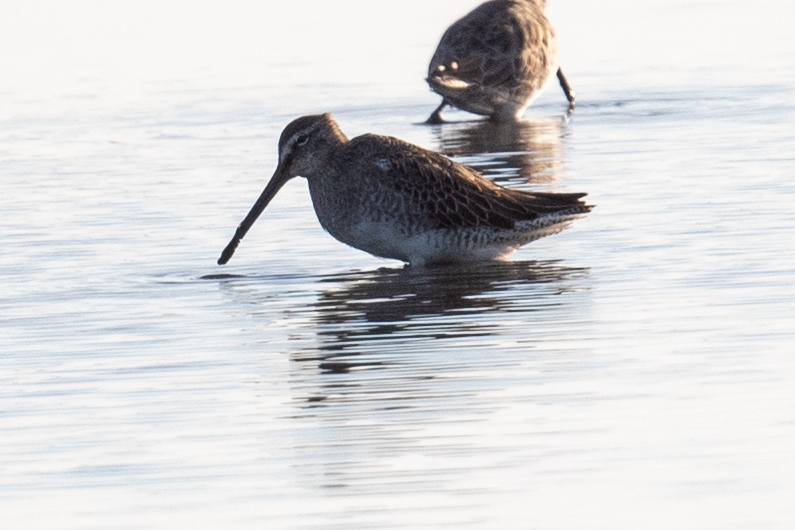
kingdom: Animalia
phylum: Chordata
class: Aves
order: Charadriiformes
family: Scolopacidae
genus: Limnodromus
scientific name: Limnodromus scolopaceus
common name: Long-billed dowitcher
